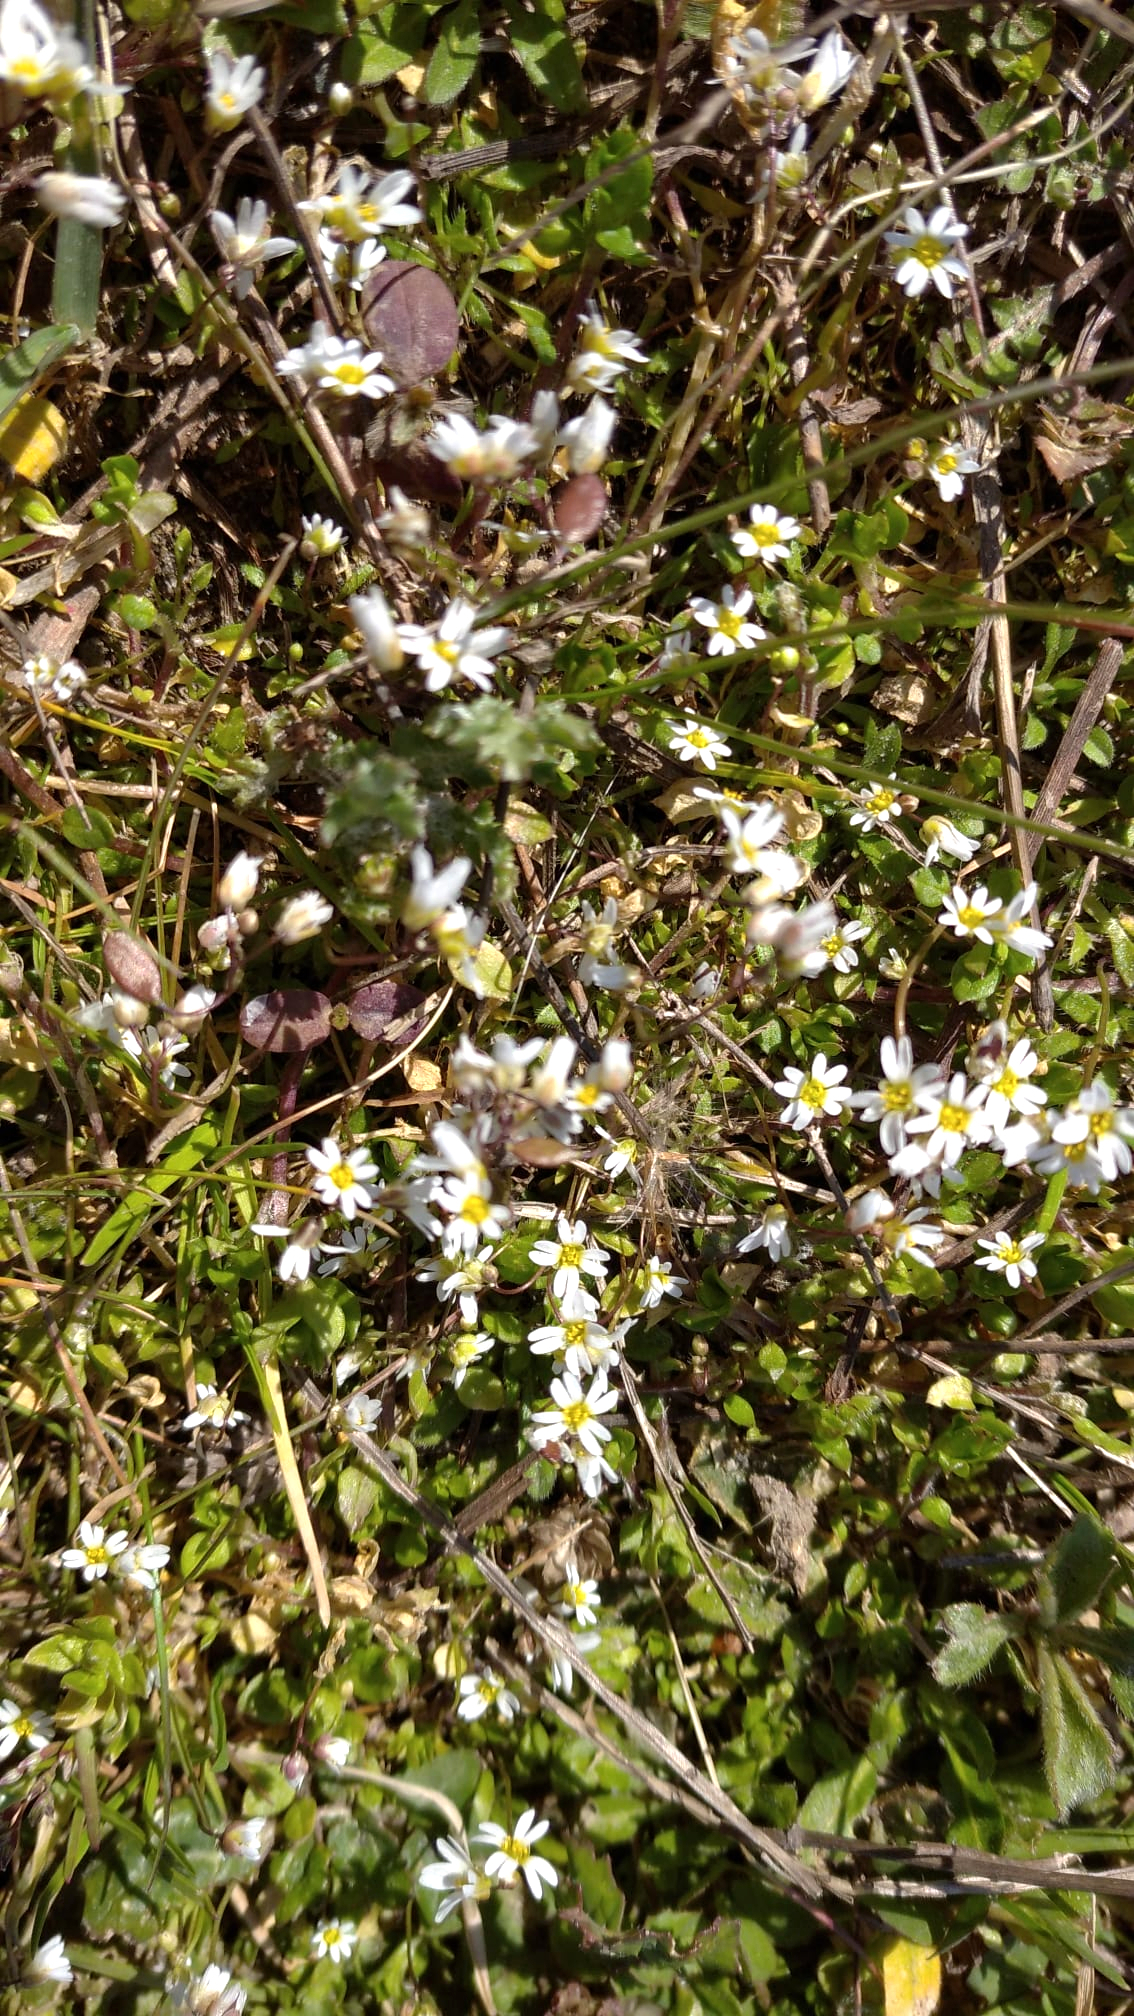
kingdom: Plantae
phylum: Tracheophyta
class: Magnoliopsida
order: Brassicales
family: Brassicaceae
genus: Draba
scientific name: Draba verna
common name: Spring draba
